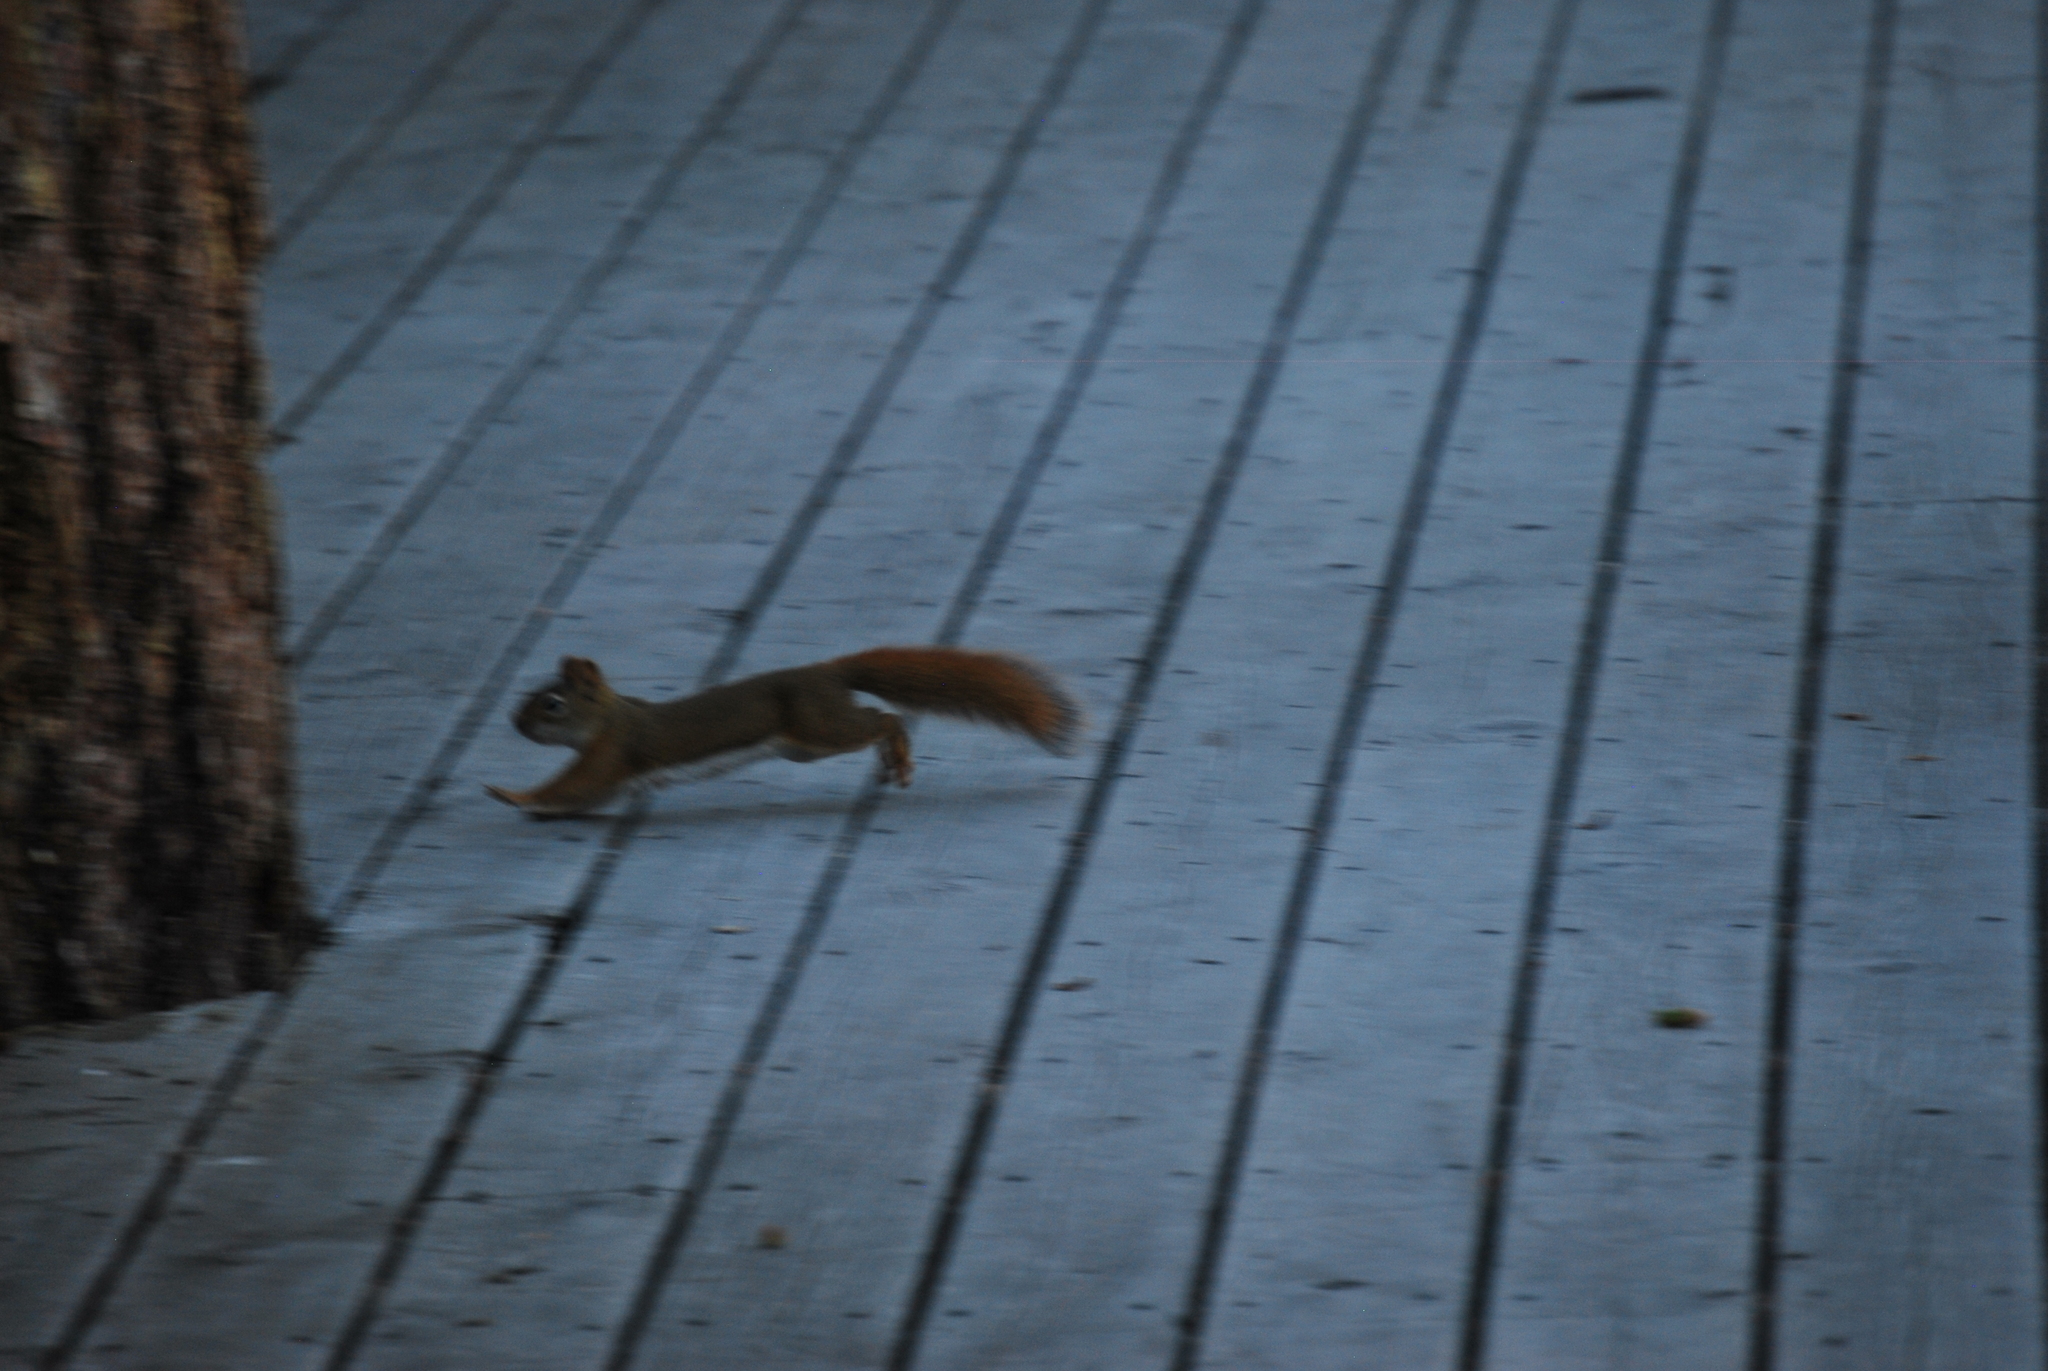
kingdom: Animalia
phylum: Chordata
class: Mammalia
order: Rodentia
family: Sciuridae
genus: Tamiasciurus
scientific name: Tamiasciurus hudsonicus
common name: Red squirrel
